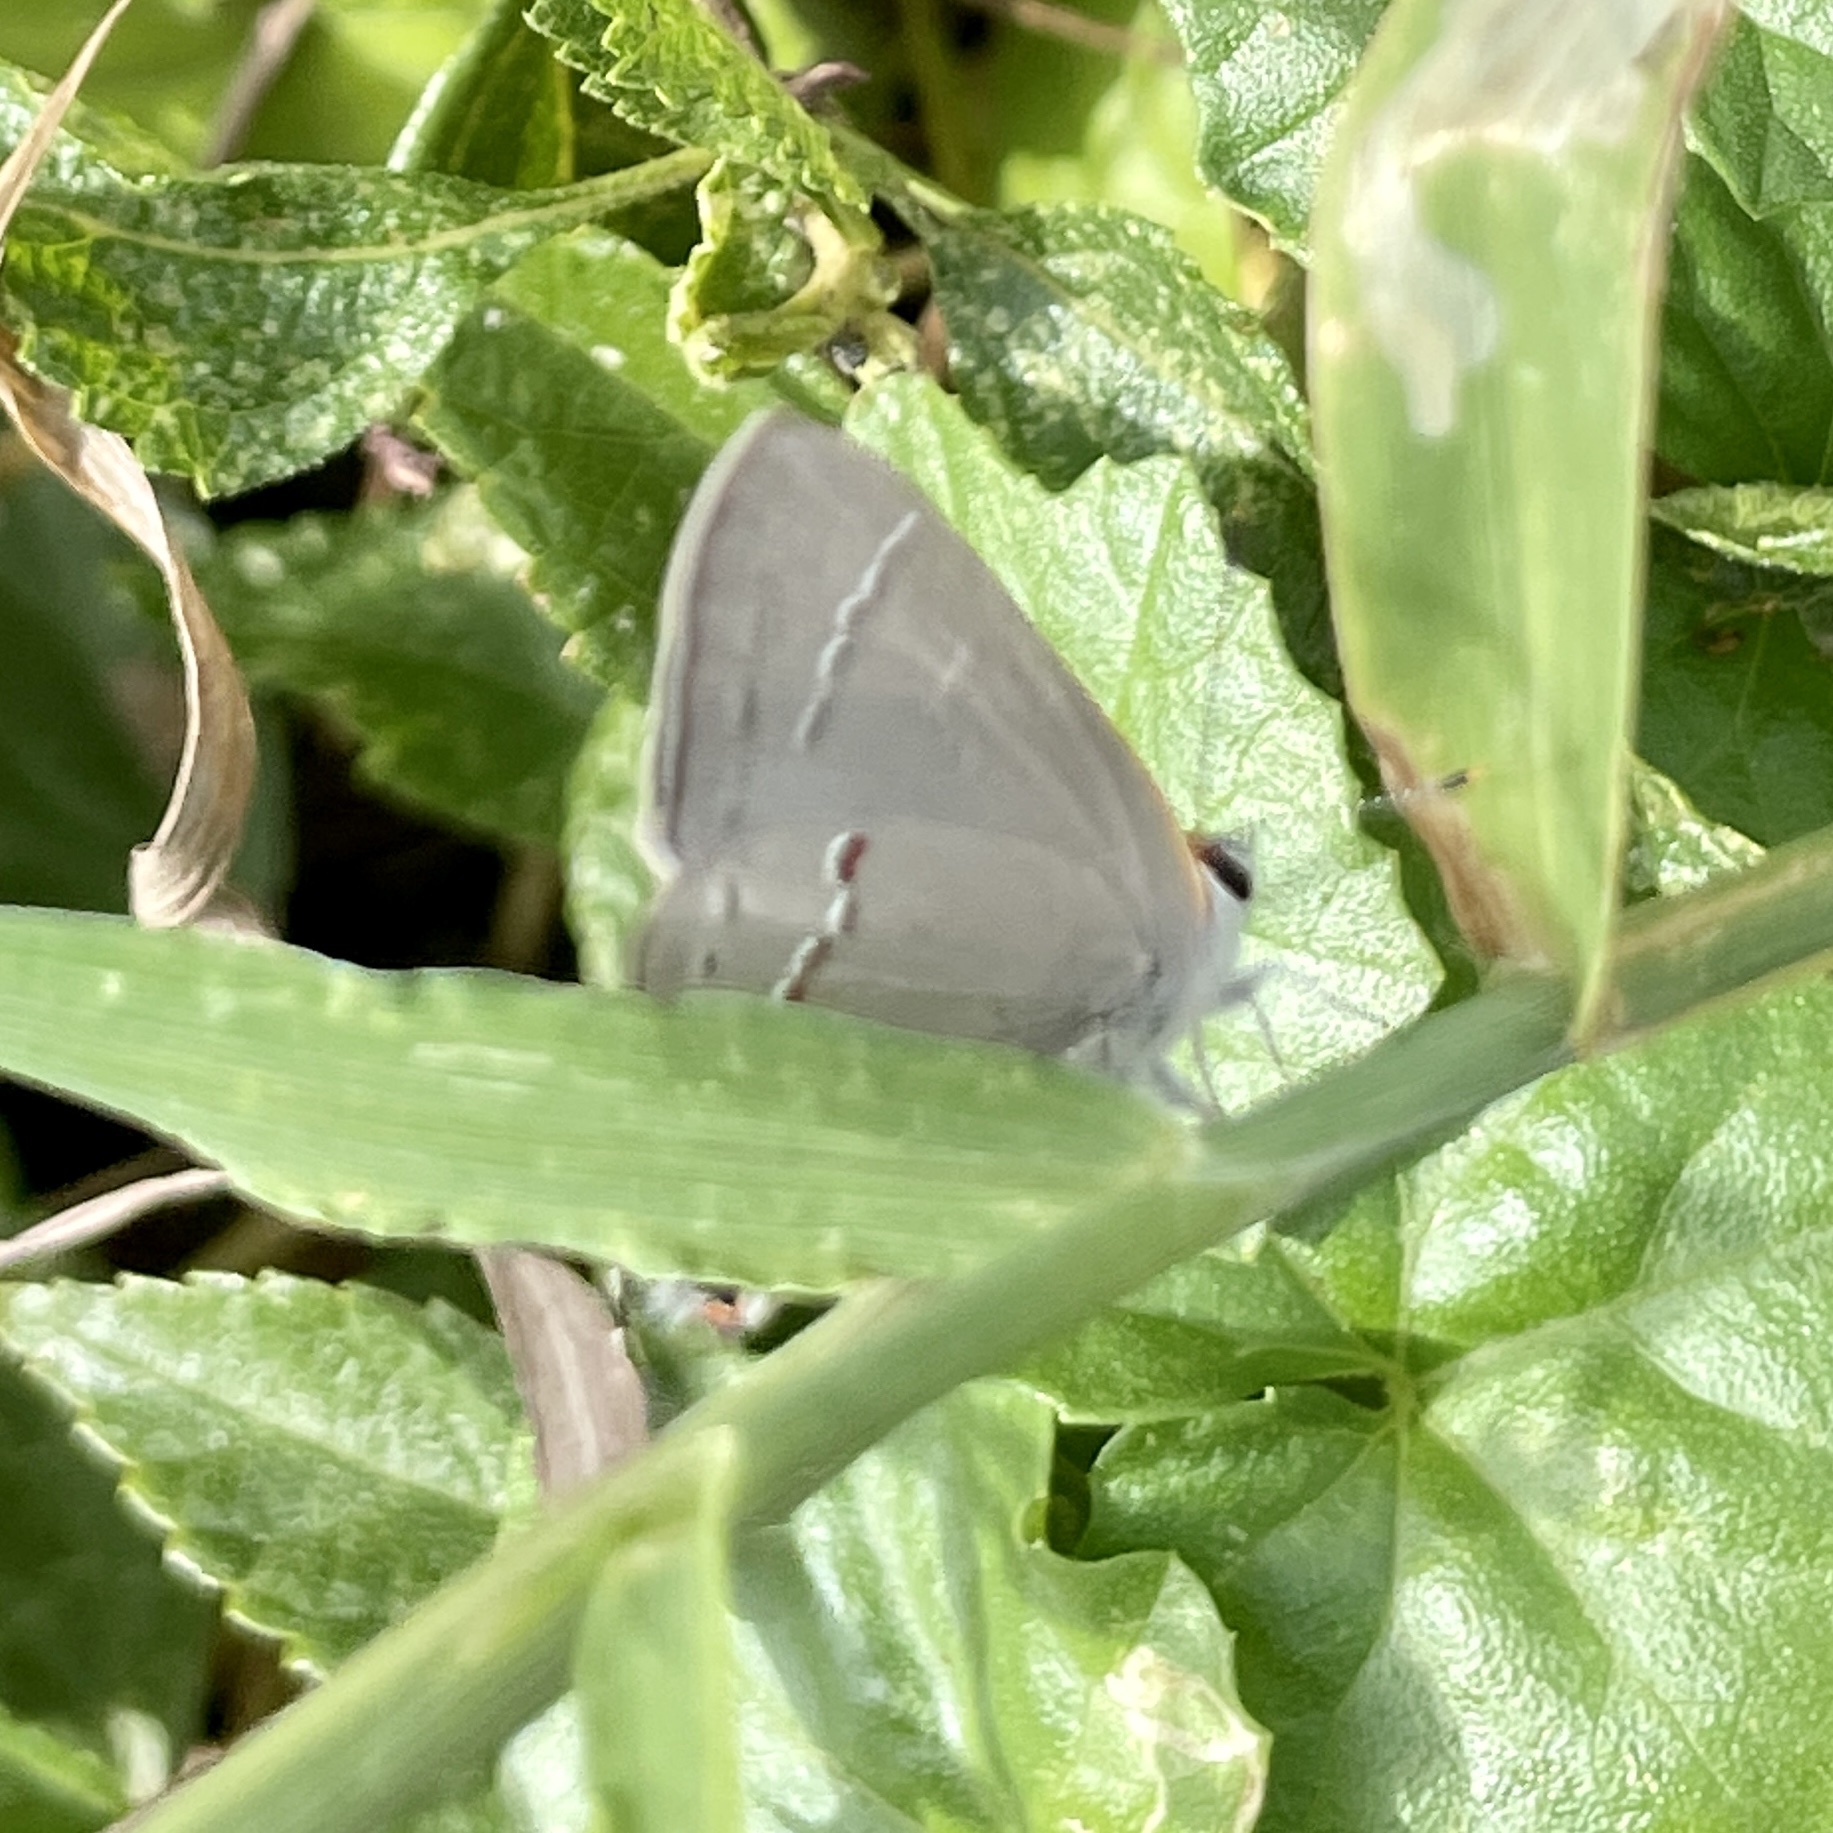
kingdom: Animalia
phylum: Arthropoda
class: Insecta
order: Lepidoptera
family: Lycaenidae
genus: Strymon
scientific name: Strymon melinus
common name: Gray hairstreak
